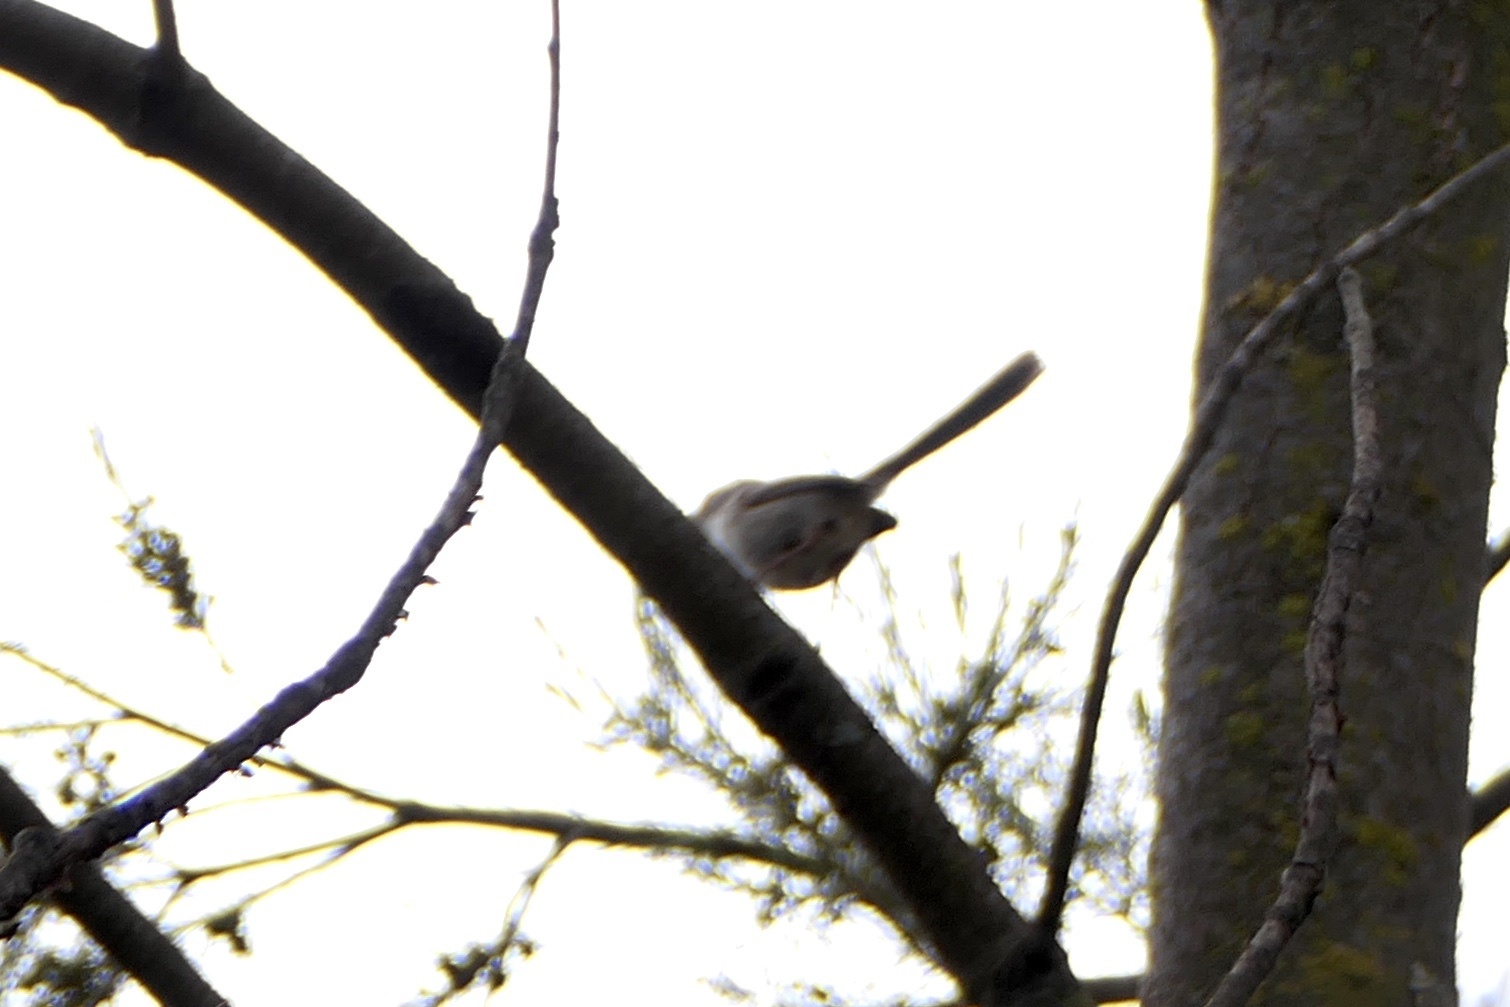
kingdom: Animalia
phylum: Chordata
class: Aves
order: Passeriformes
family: Maluridae
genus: Malurus
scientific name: Malurus cyaneus
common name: Superb fairywren
